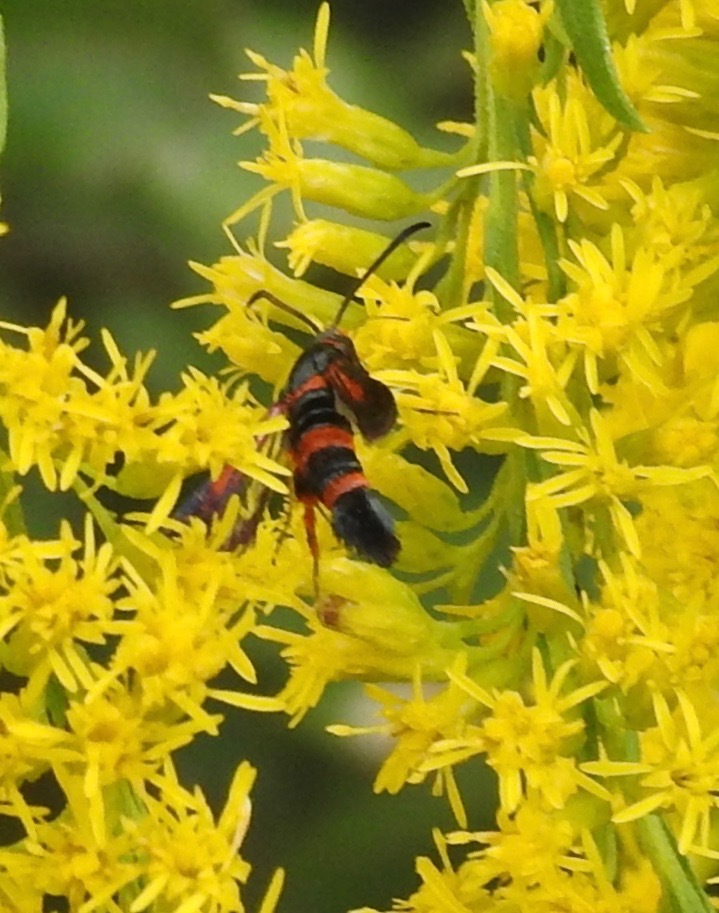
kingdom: Animalia
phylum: Arthropoda
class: Insecta
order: Lepidoptera
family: Sesiidae
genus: Synanthedon
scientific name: Synanthedon sapygaeformis
